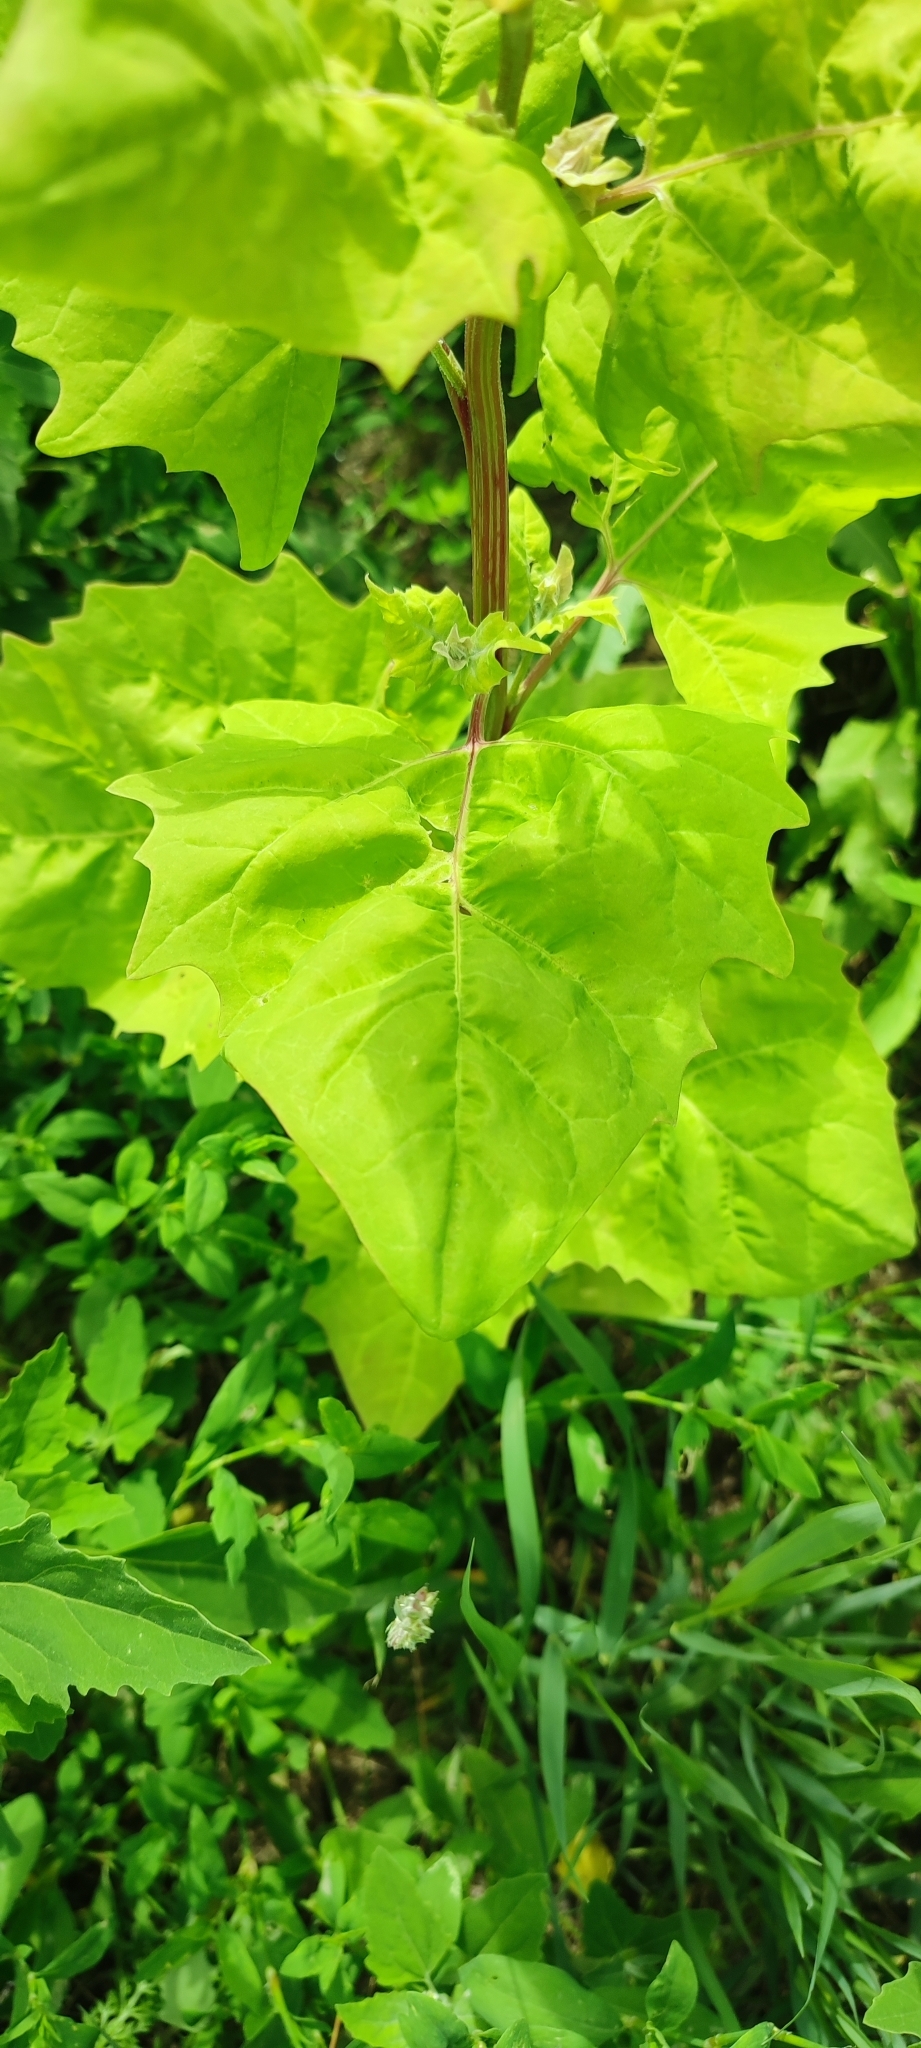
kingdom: Plantae
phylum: Tracheophyta
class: Magnoliopsida
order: Caryophyllales
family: Amaranthaceae
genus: Atriplex
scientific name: Atriplex sagittata
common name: Purple orache
